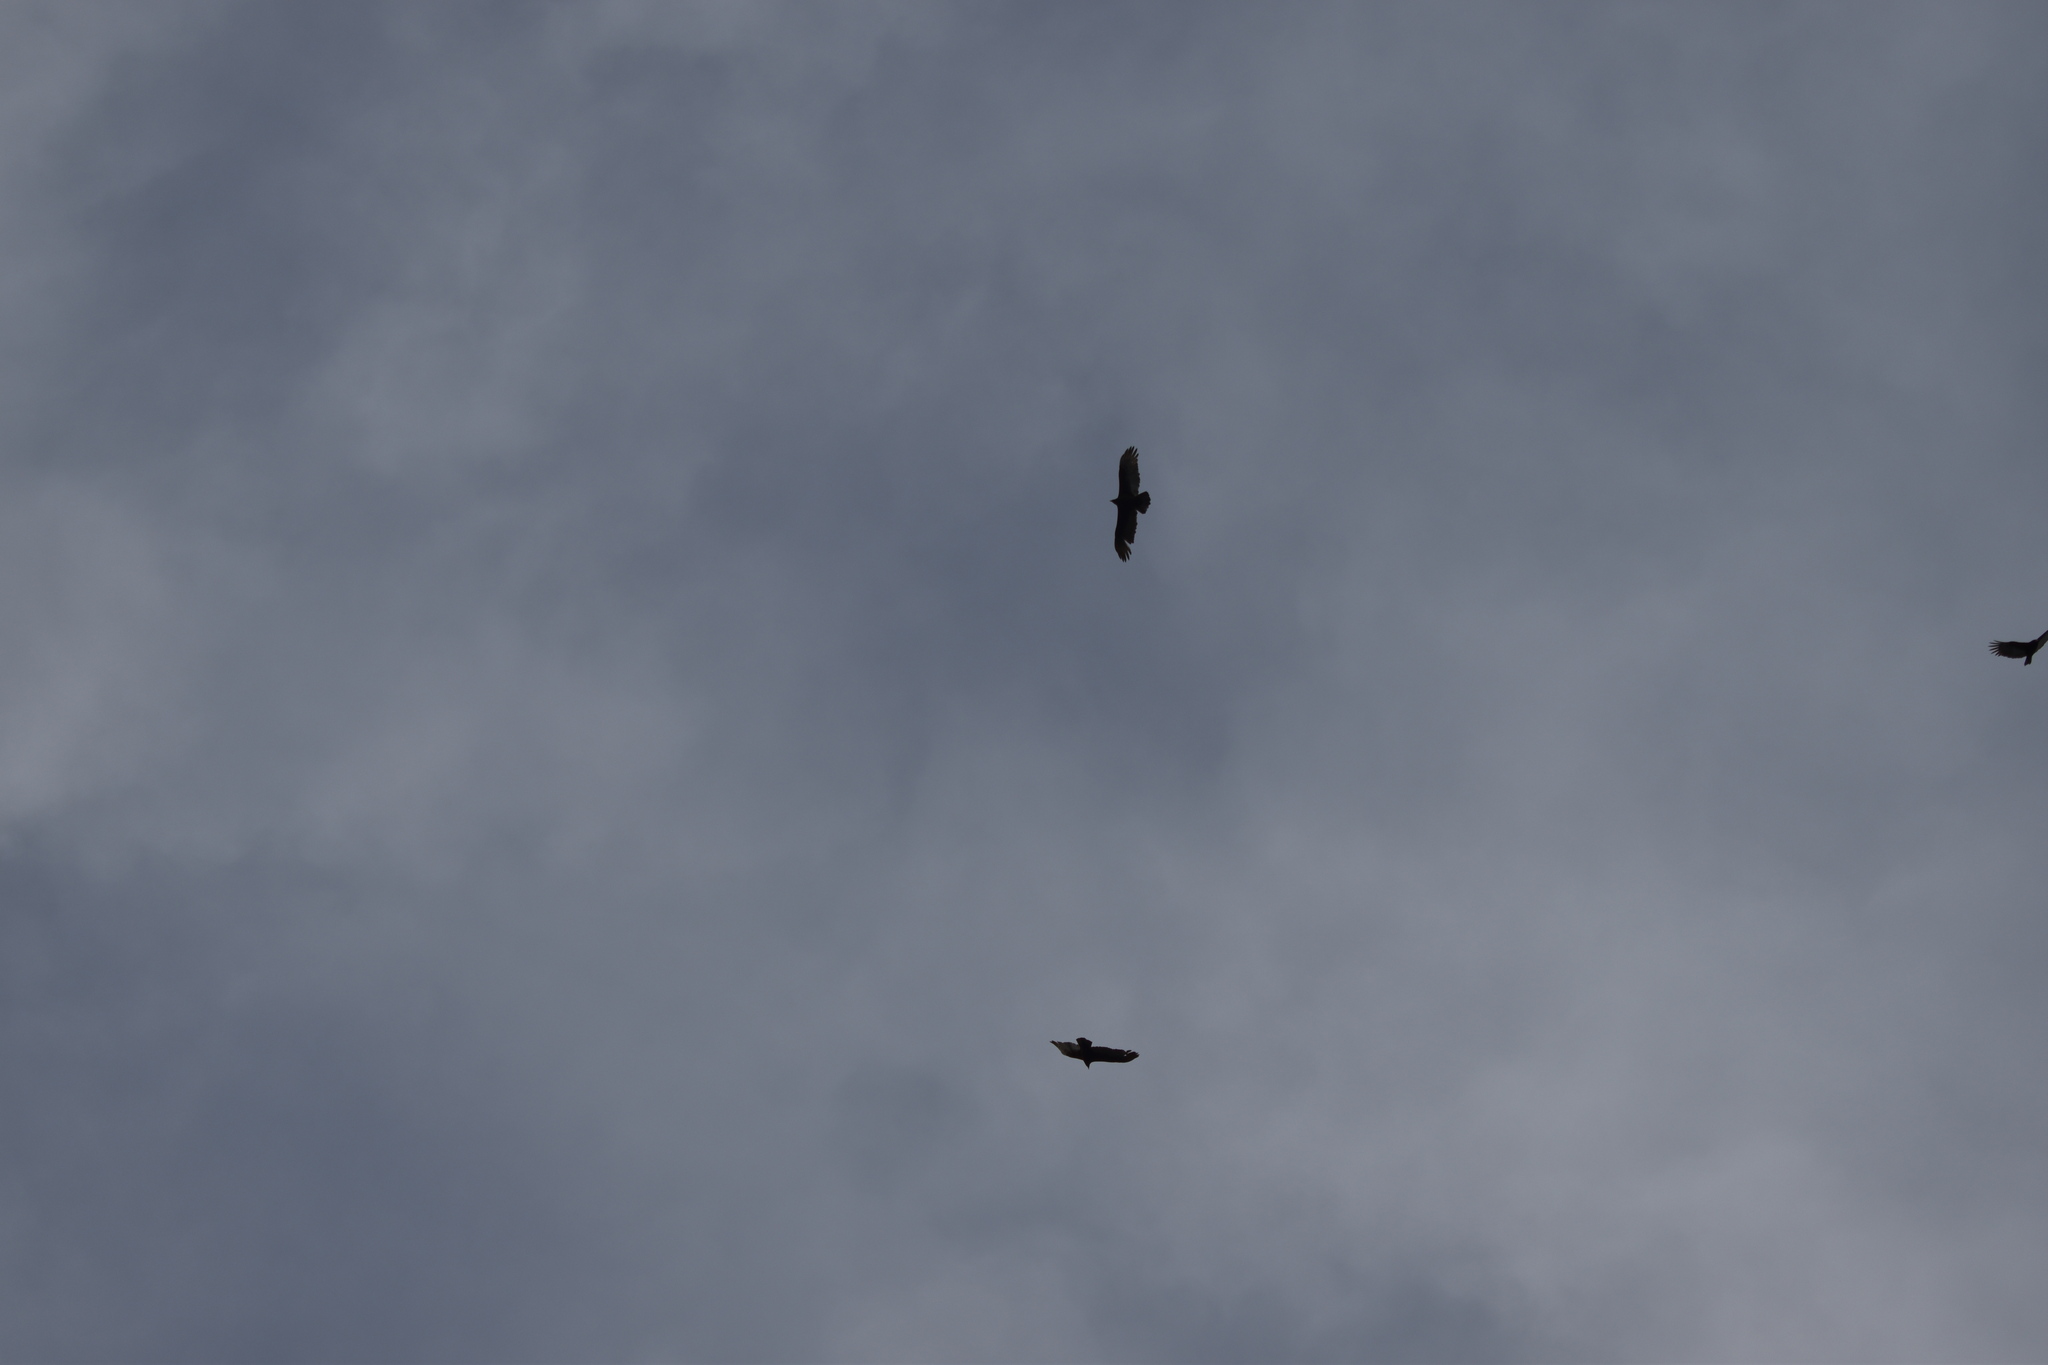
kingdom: Animalia
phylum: Chordata
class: Aves
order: Accipitriformes
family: Cathartidae
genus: Cathartes
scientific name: Cathartes aura
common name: Turkey vulture
